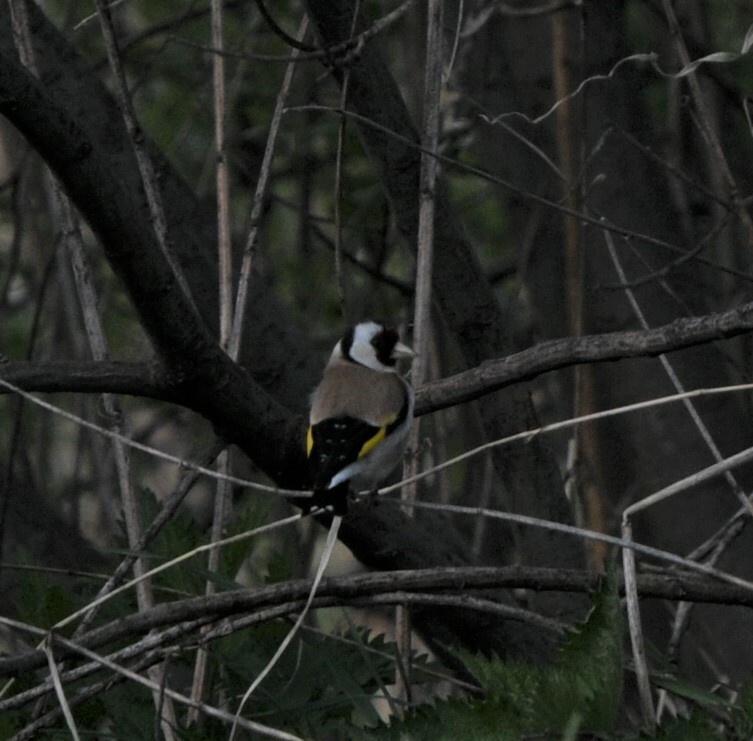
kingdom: Animalia
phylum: Chordata
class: Aves
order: Passeriformes
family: Fringillidae
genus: Carduelis
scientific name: Carduelis carduelis
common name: European goldfinch
